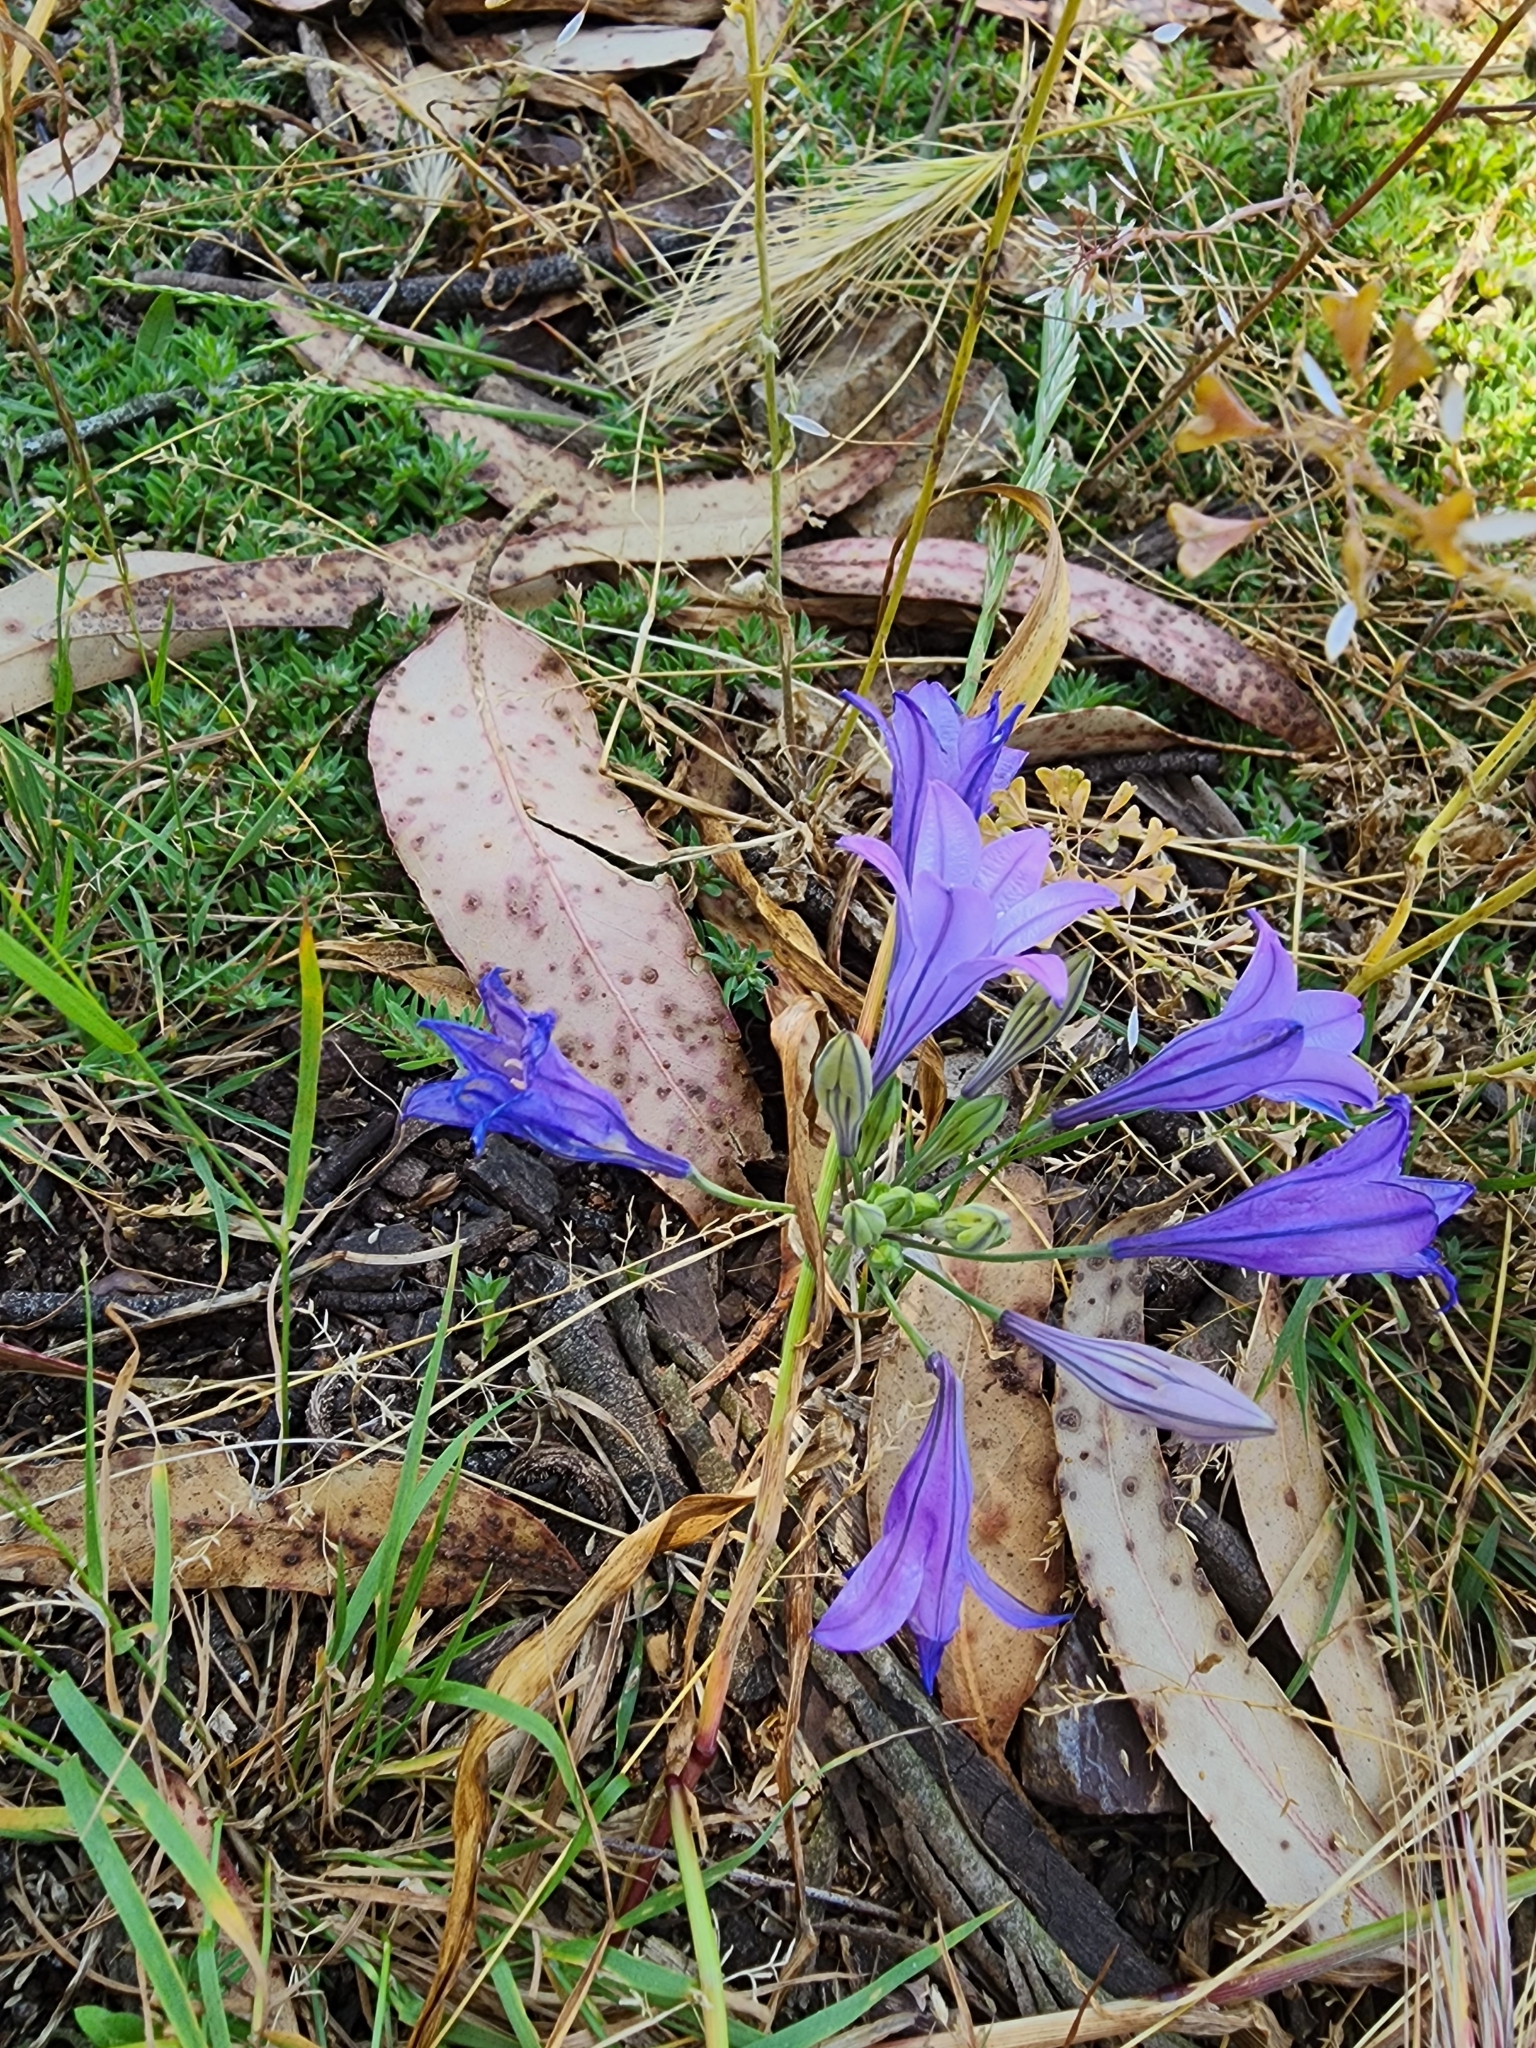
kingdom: Plantae
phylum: Tracheophyta
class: Liliopsida
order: Asparagales
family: Asparagaceae
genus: Triteleia
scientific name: Triteleia laxa
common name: Triplet-lily
